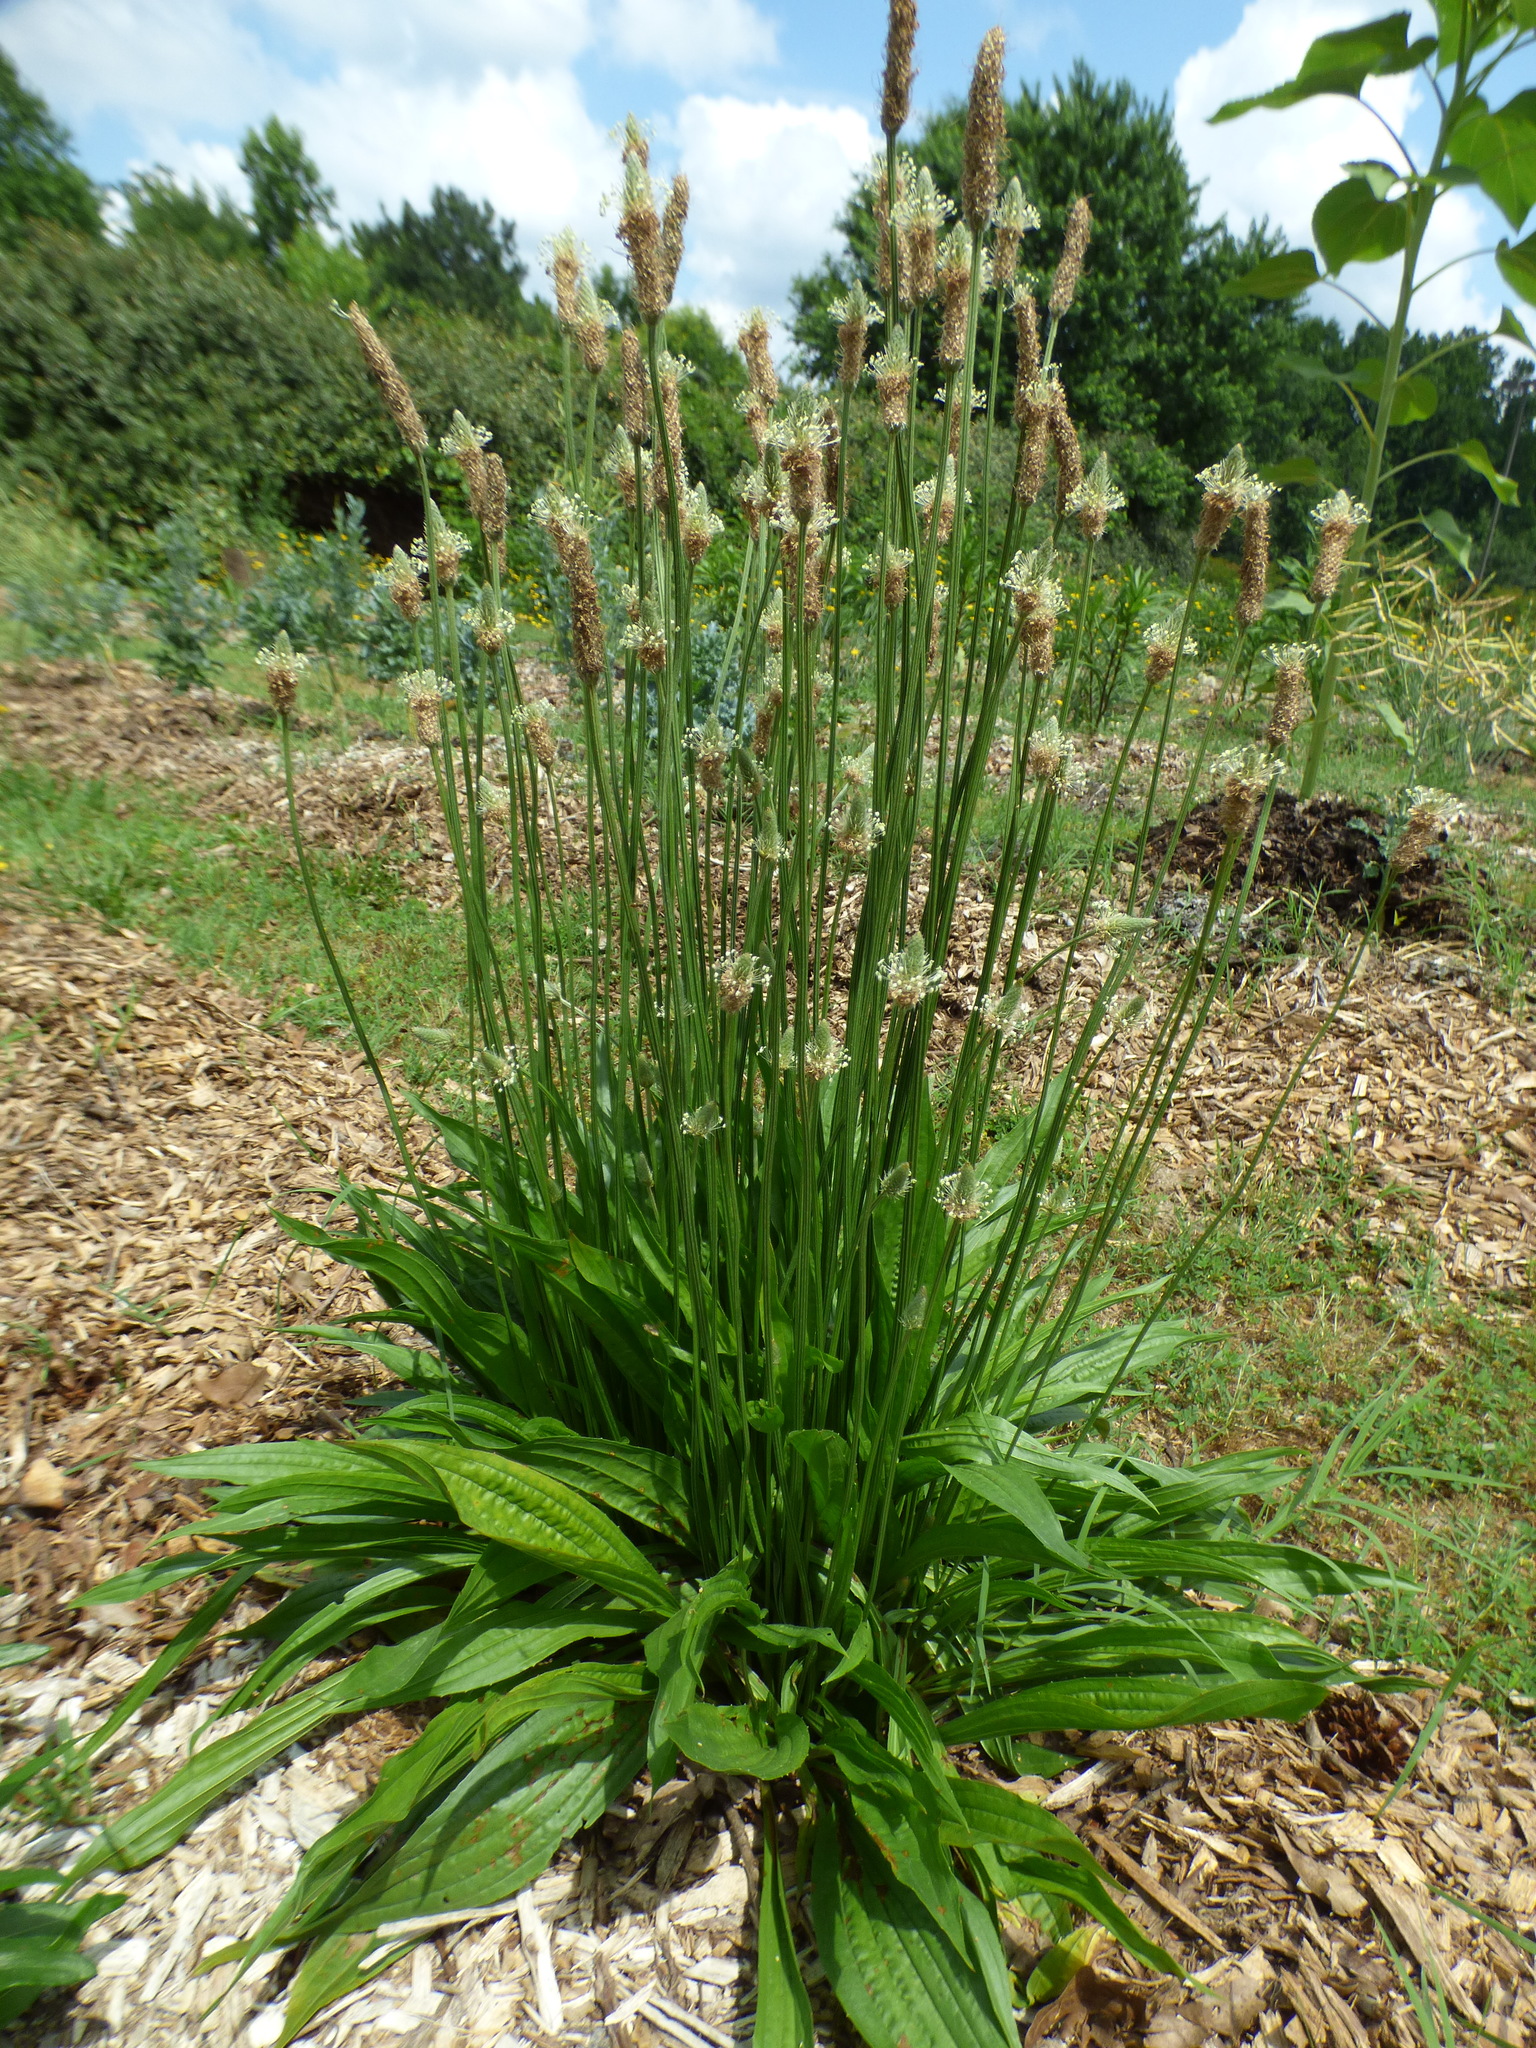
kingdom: Plantae
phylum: Tracheophyta
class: Magnoliopsida
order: Lamiales
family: Plantaginaceae
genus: Plantago
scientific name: Plantago lanceolata
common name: Ribwort plantain
